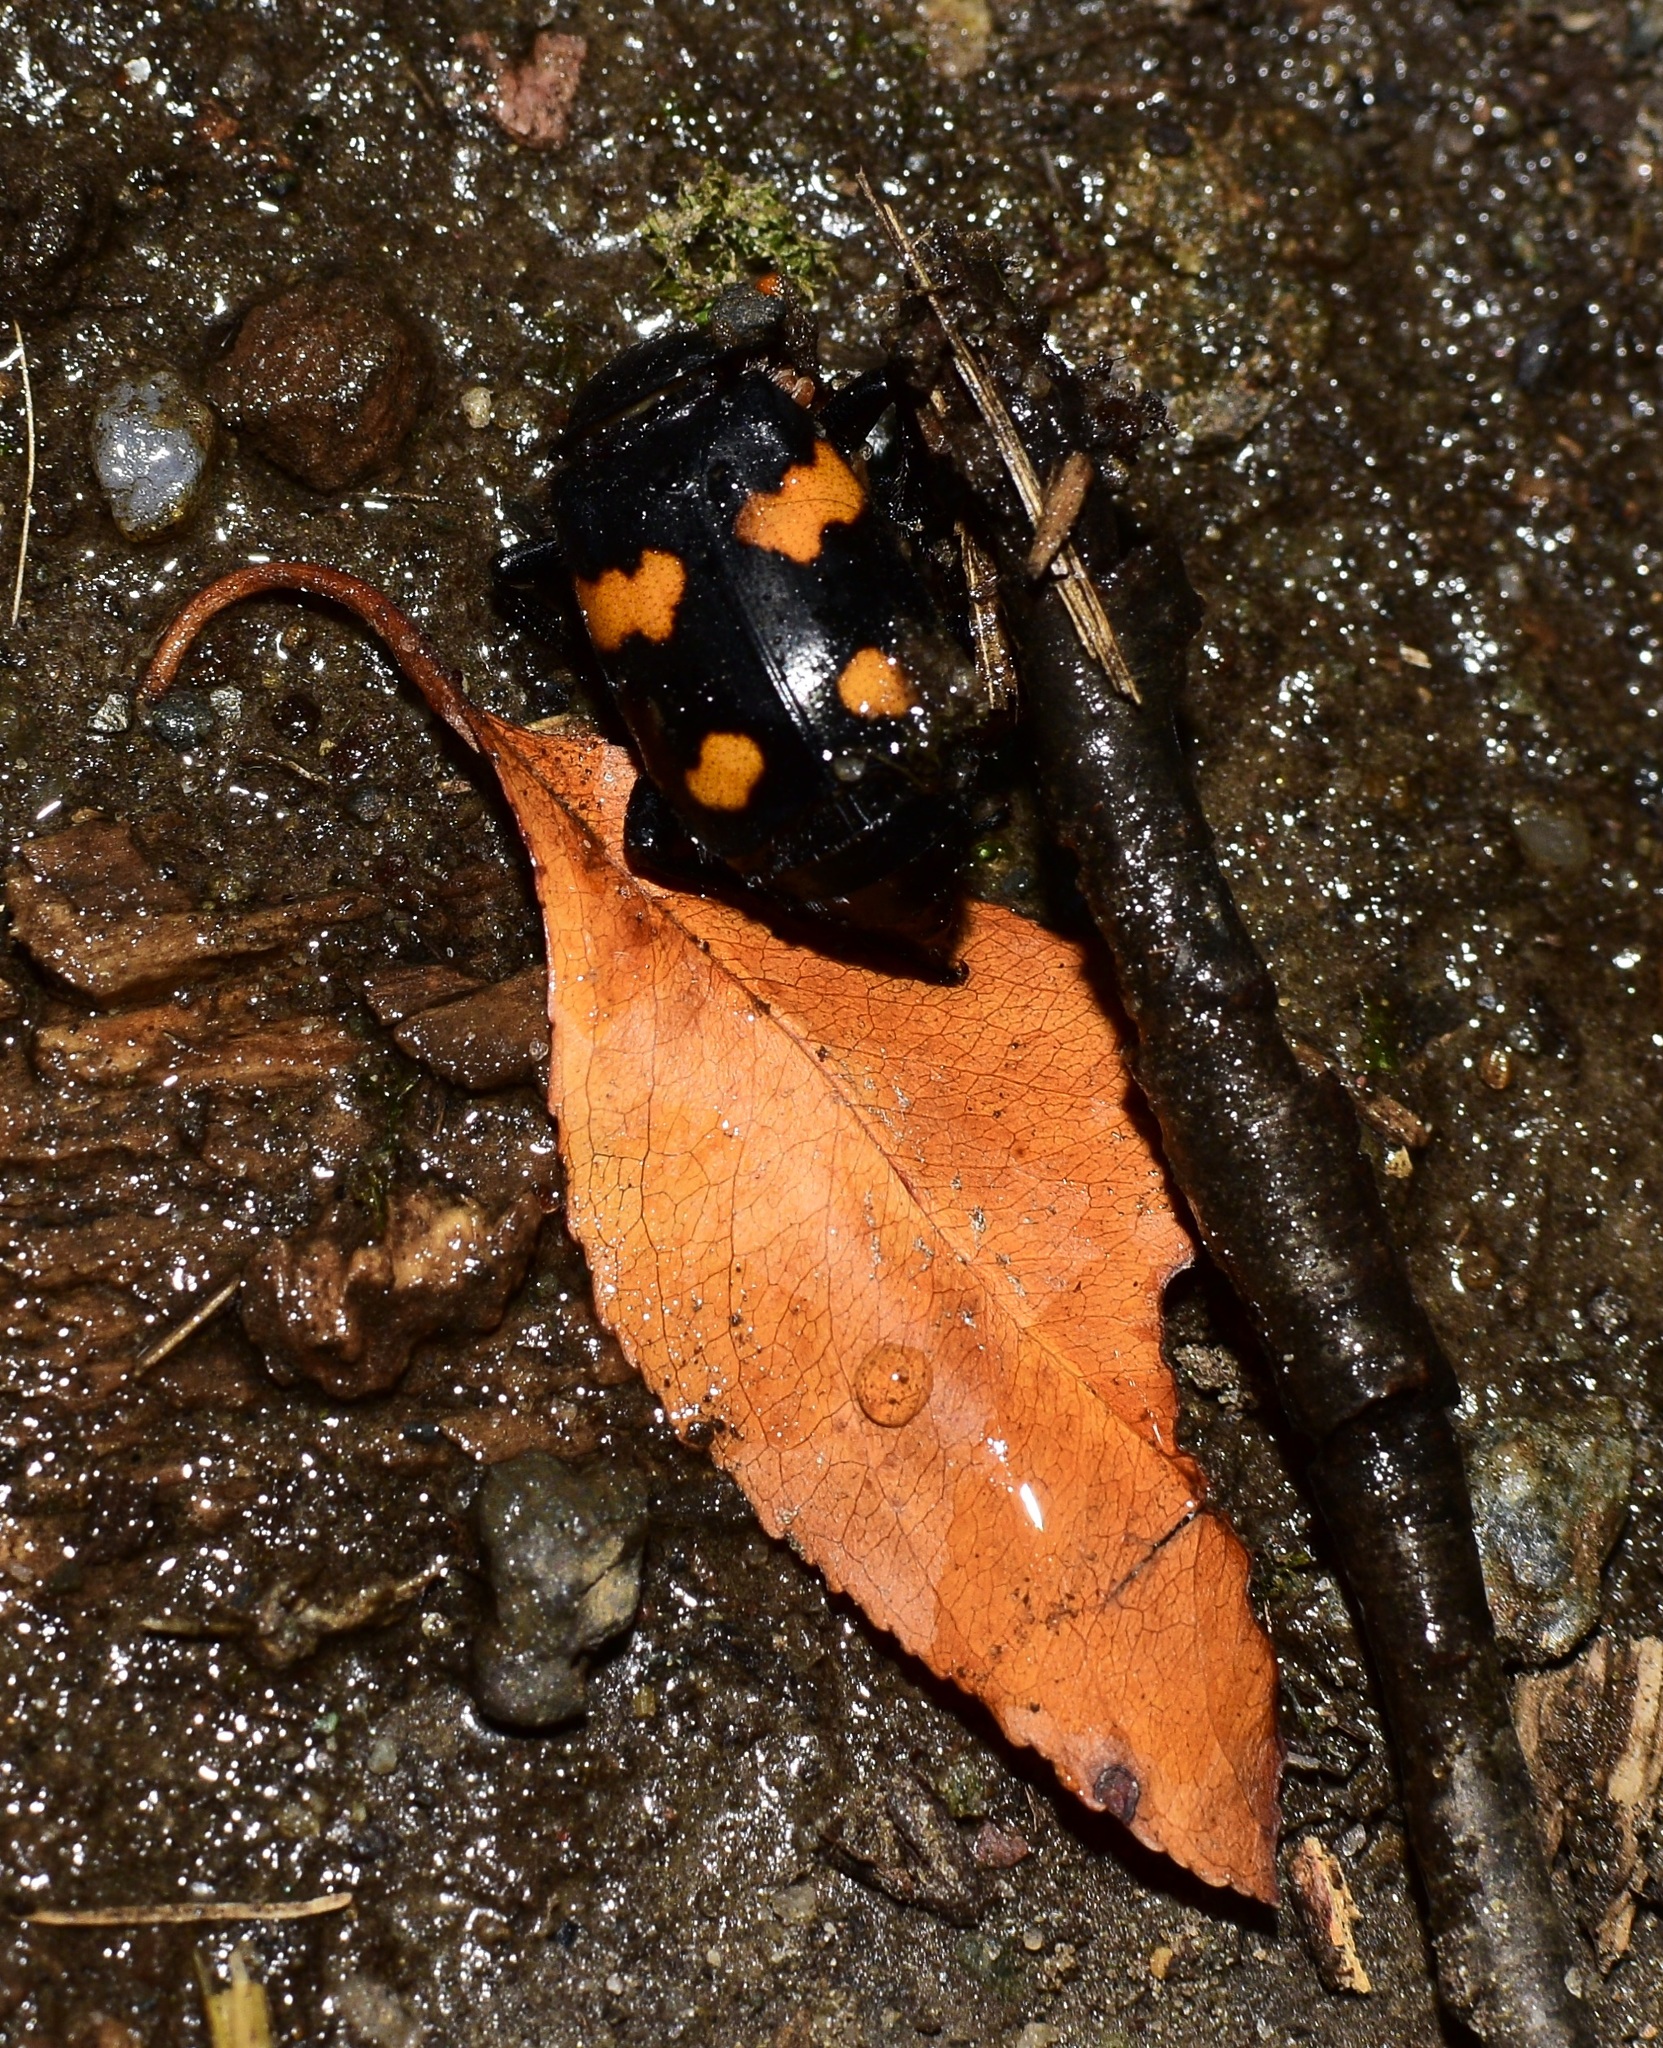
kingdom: Animalia
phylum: Arthropoda
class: Insecta
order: Coleoptera
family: Staphylinidae
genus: Nicrophorus
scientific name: Nicrophorus orbicollis
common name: Roundneck sexton beetle
